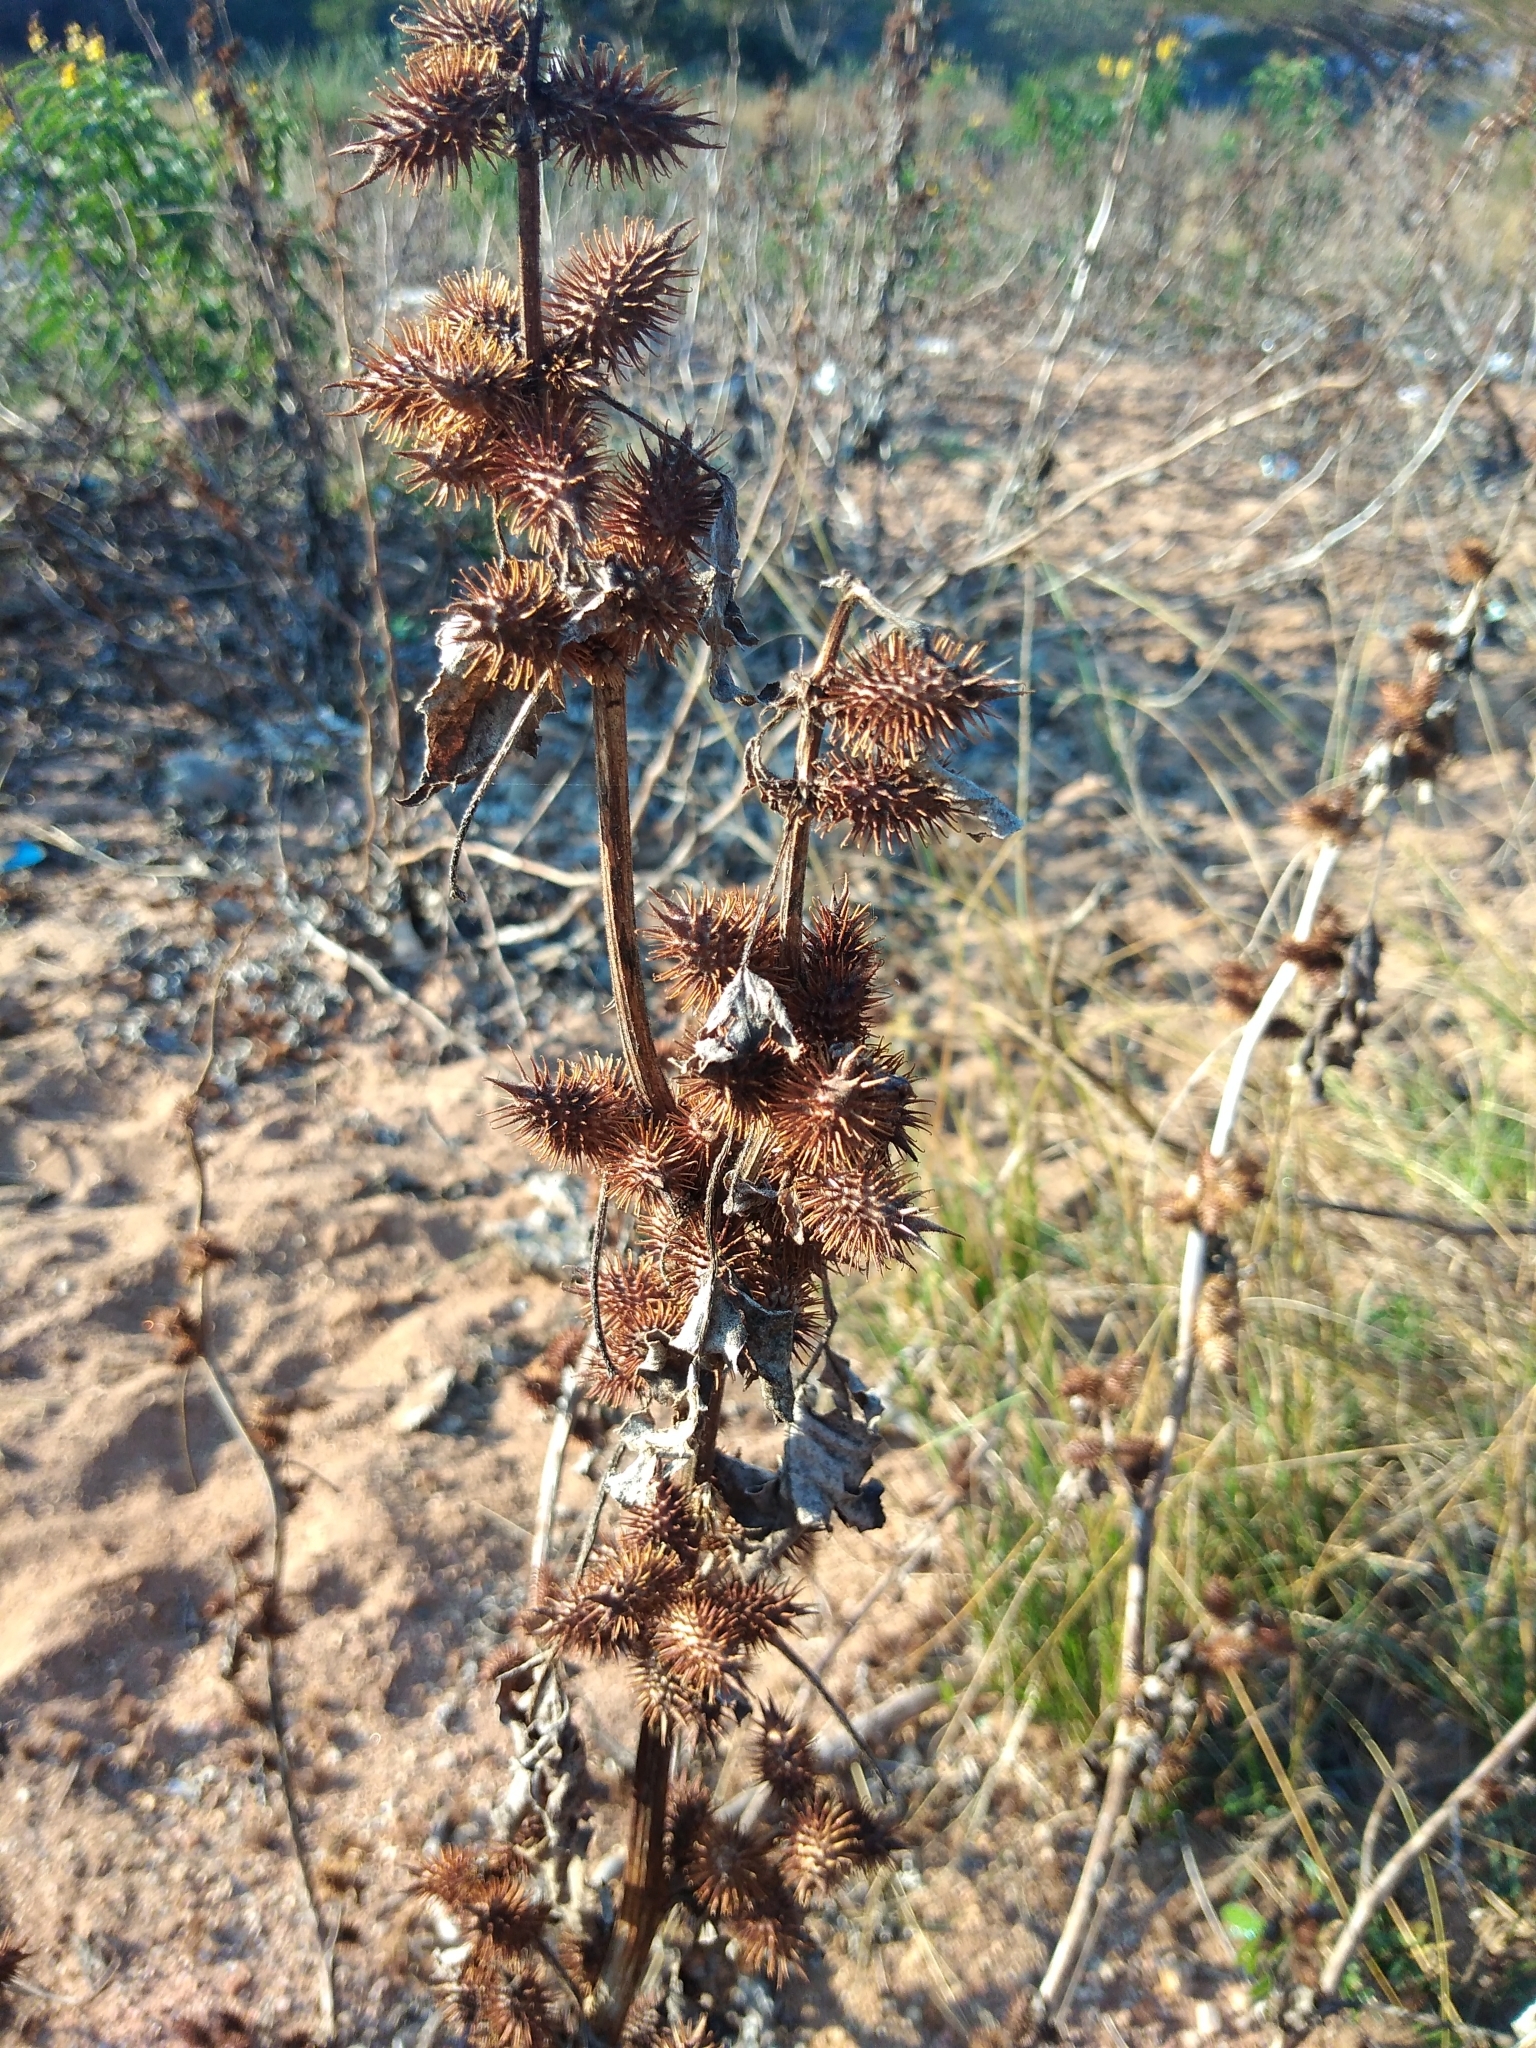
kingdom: Plantae
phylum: Tracheophyta
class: Magnoliopsida
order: Asterales
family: Asteraceae
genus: Xanthium
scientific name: Xanthium strumarium
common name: Rough cocklebur
